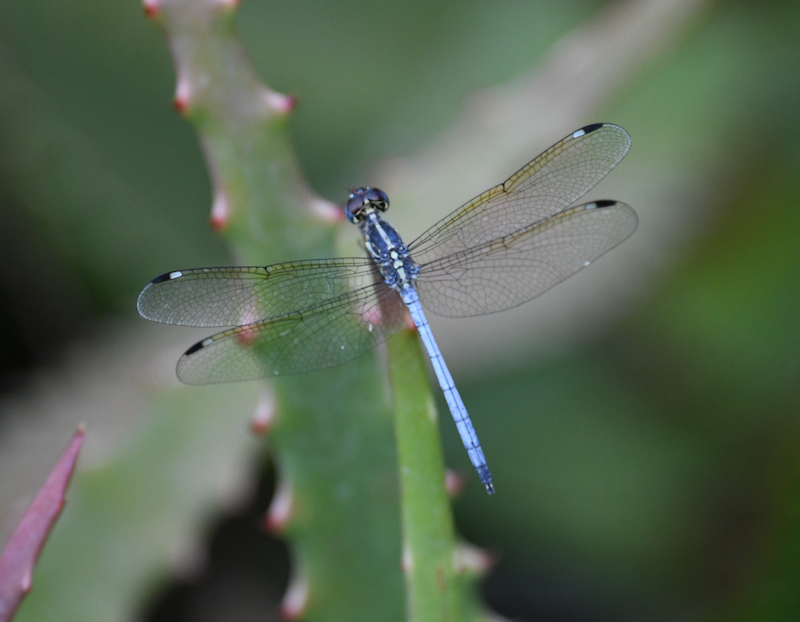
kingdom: Animalia
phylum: Arthropoda
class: Insecta
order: Odonata
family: Libellulidae
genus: Hemistigma
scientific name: Hemistigma albipunctum
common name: African pied-spot
